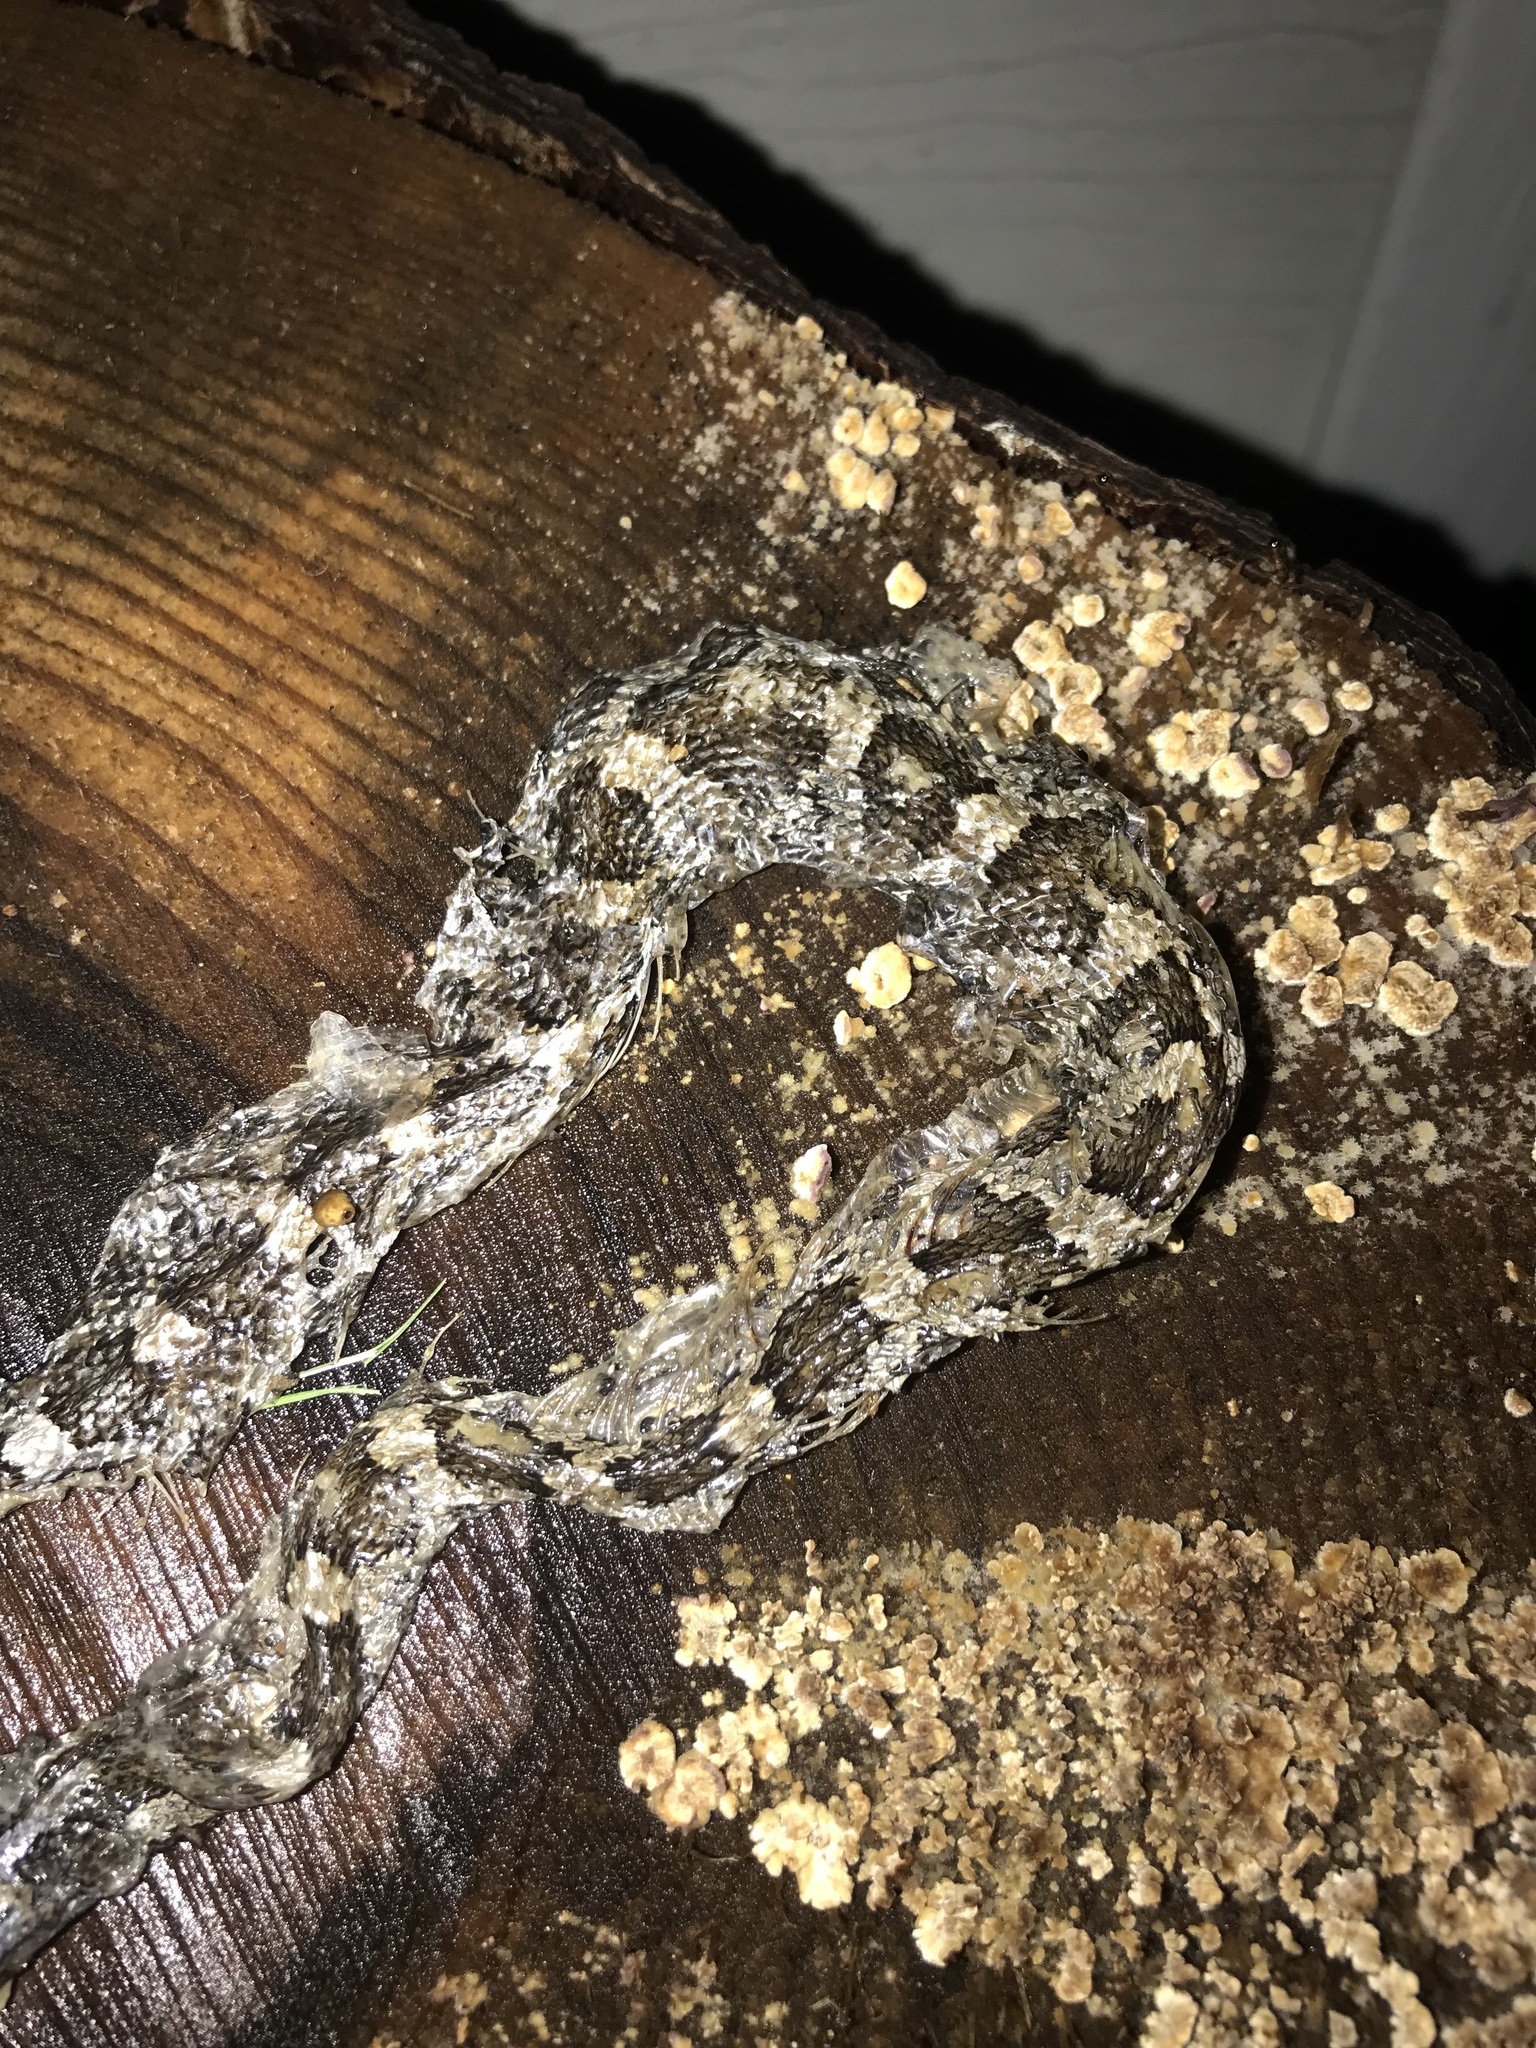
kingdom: Animalia
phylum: Chordata
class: Squamata
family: Colubridae
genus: Pantherophis
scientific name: Pantherophis obsoletus
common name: Black rat snake
